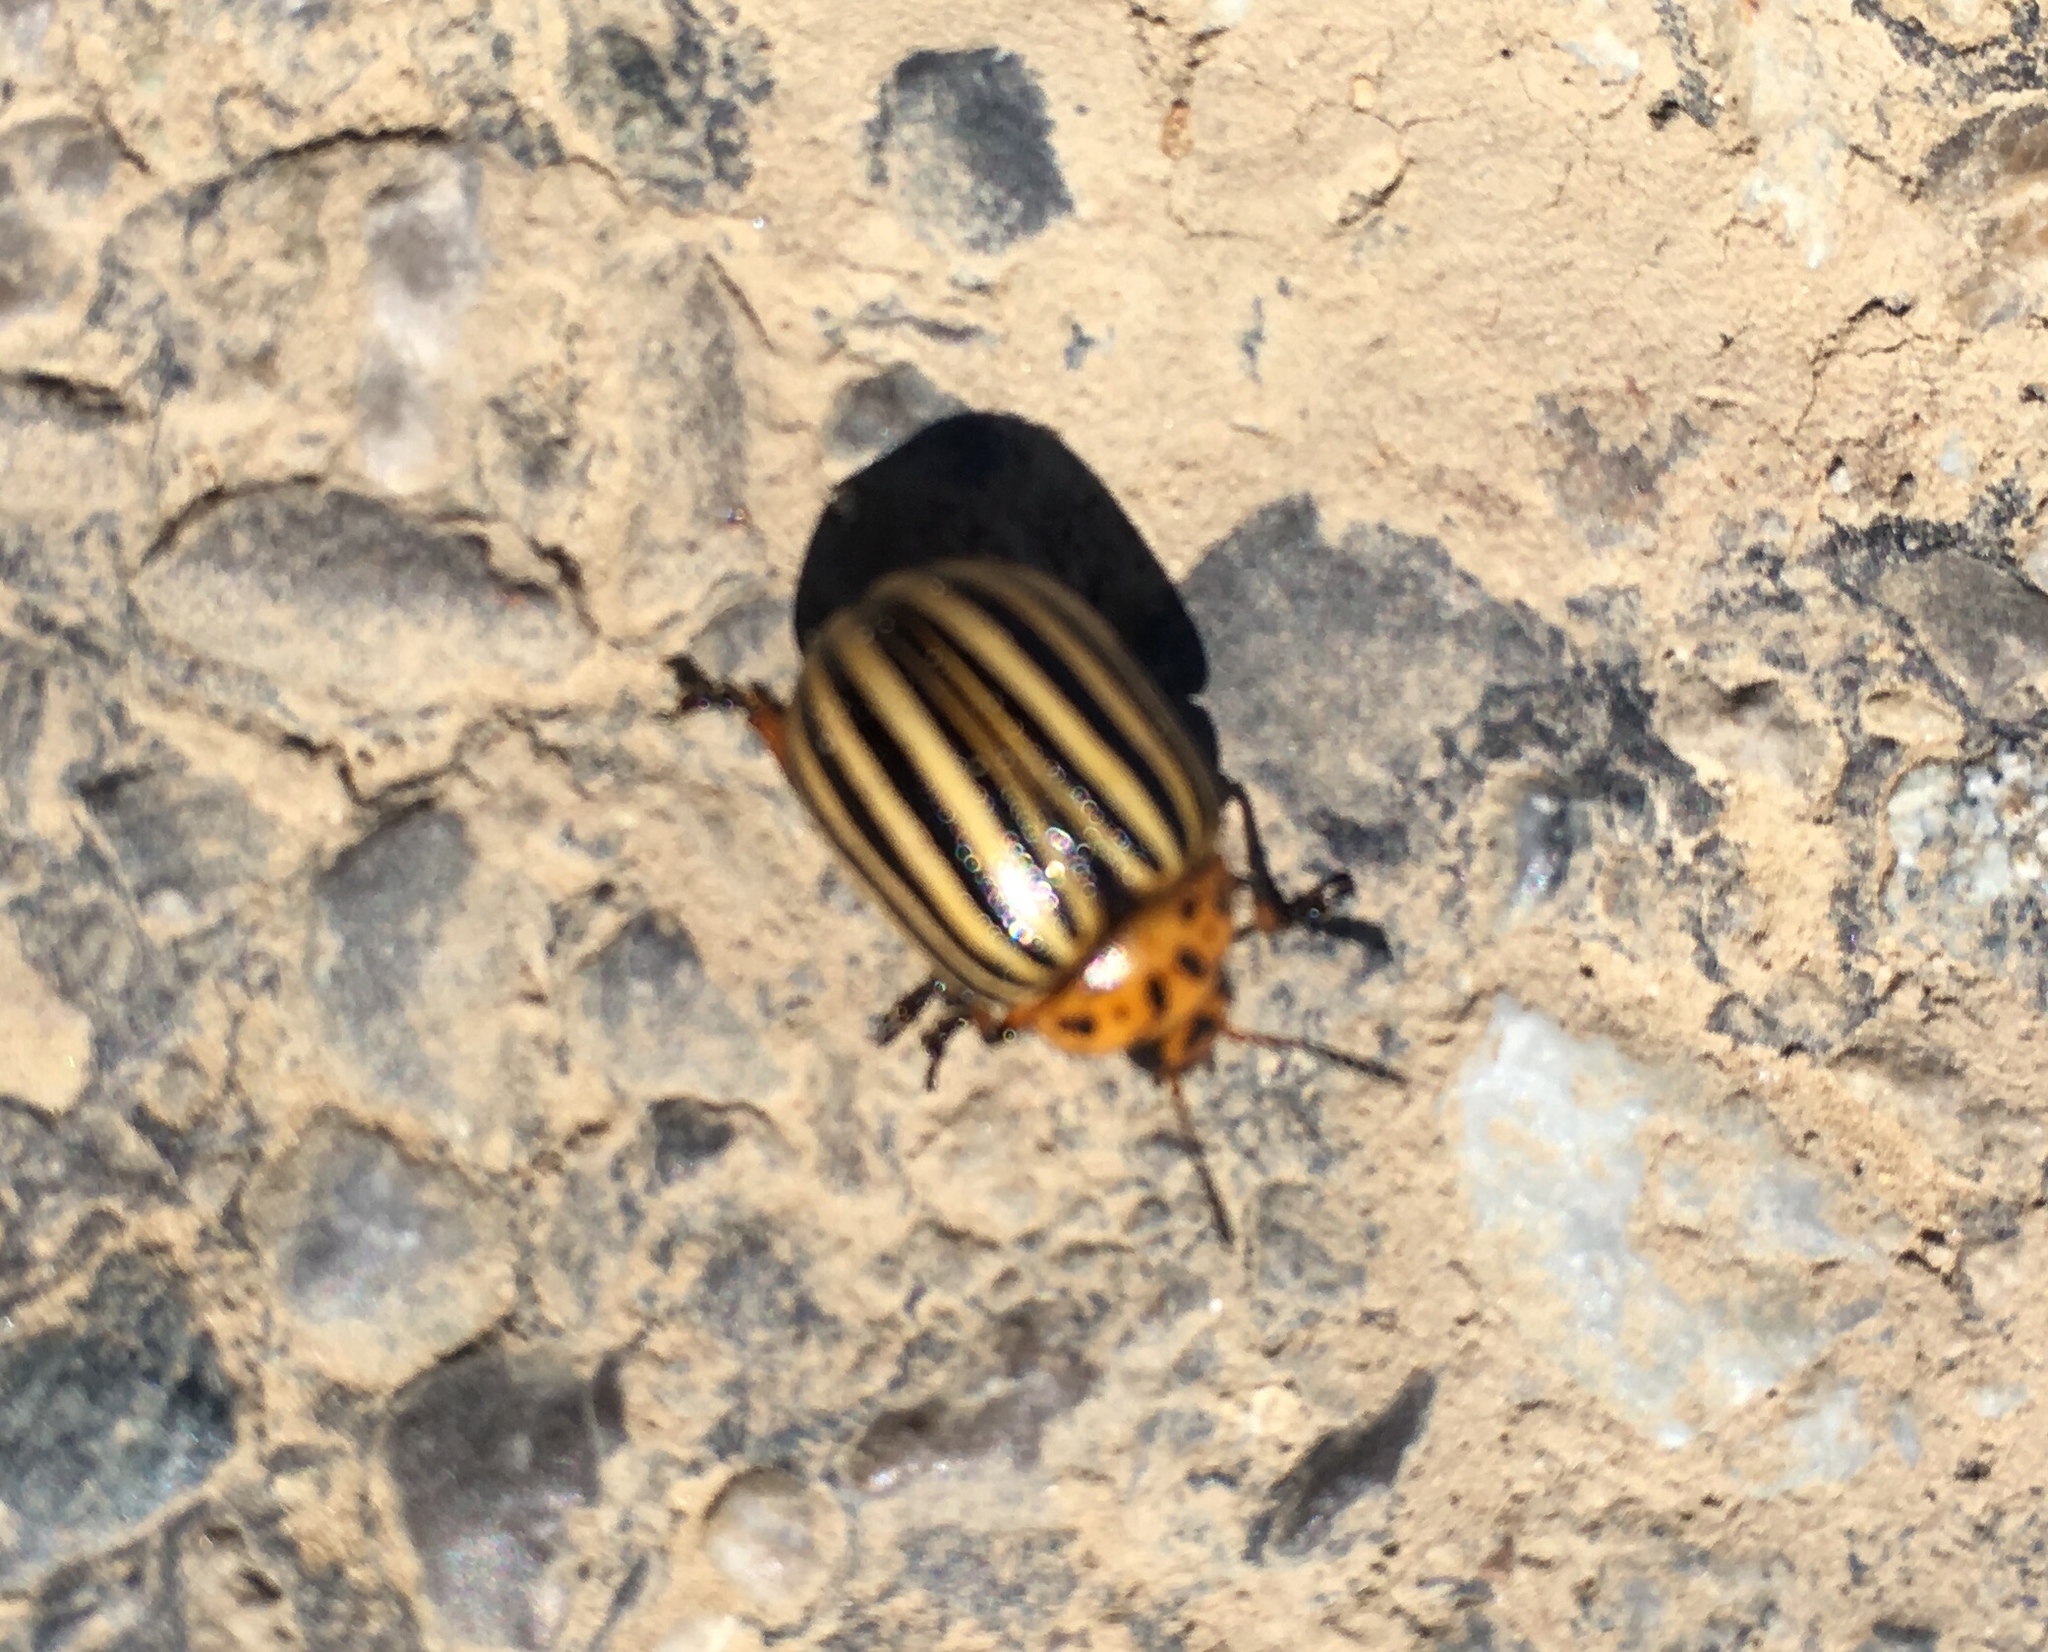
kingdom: Animalia
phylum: Arthropoda
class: Insecta
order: Coleoptera
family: Chrysomelidae
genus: Leptinotarsa
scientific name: Leptinotarsa decemlineata
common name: Colorado potato beetle
